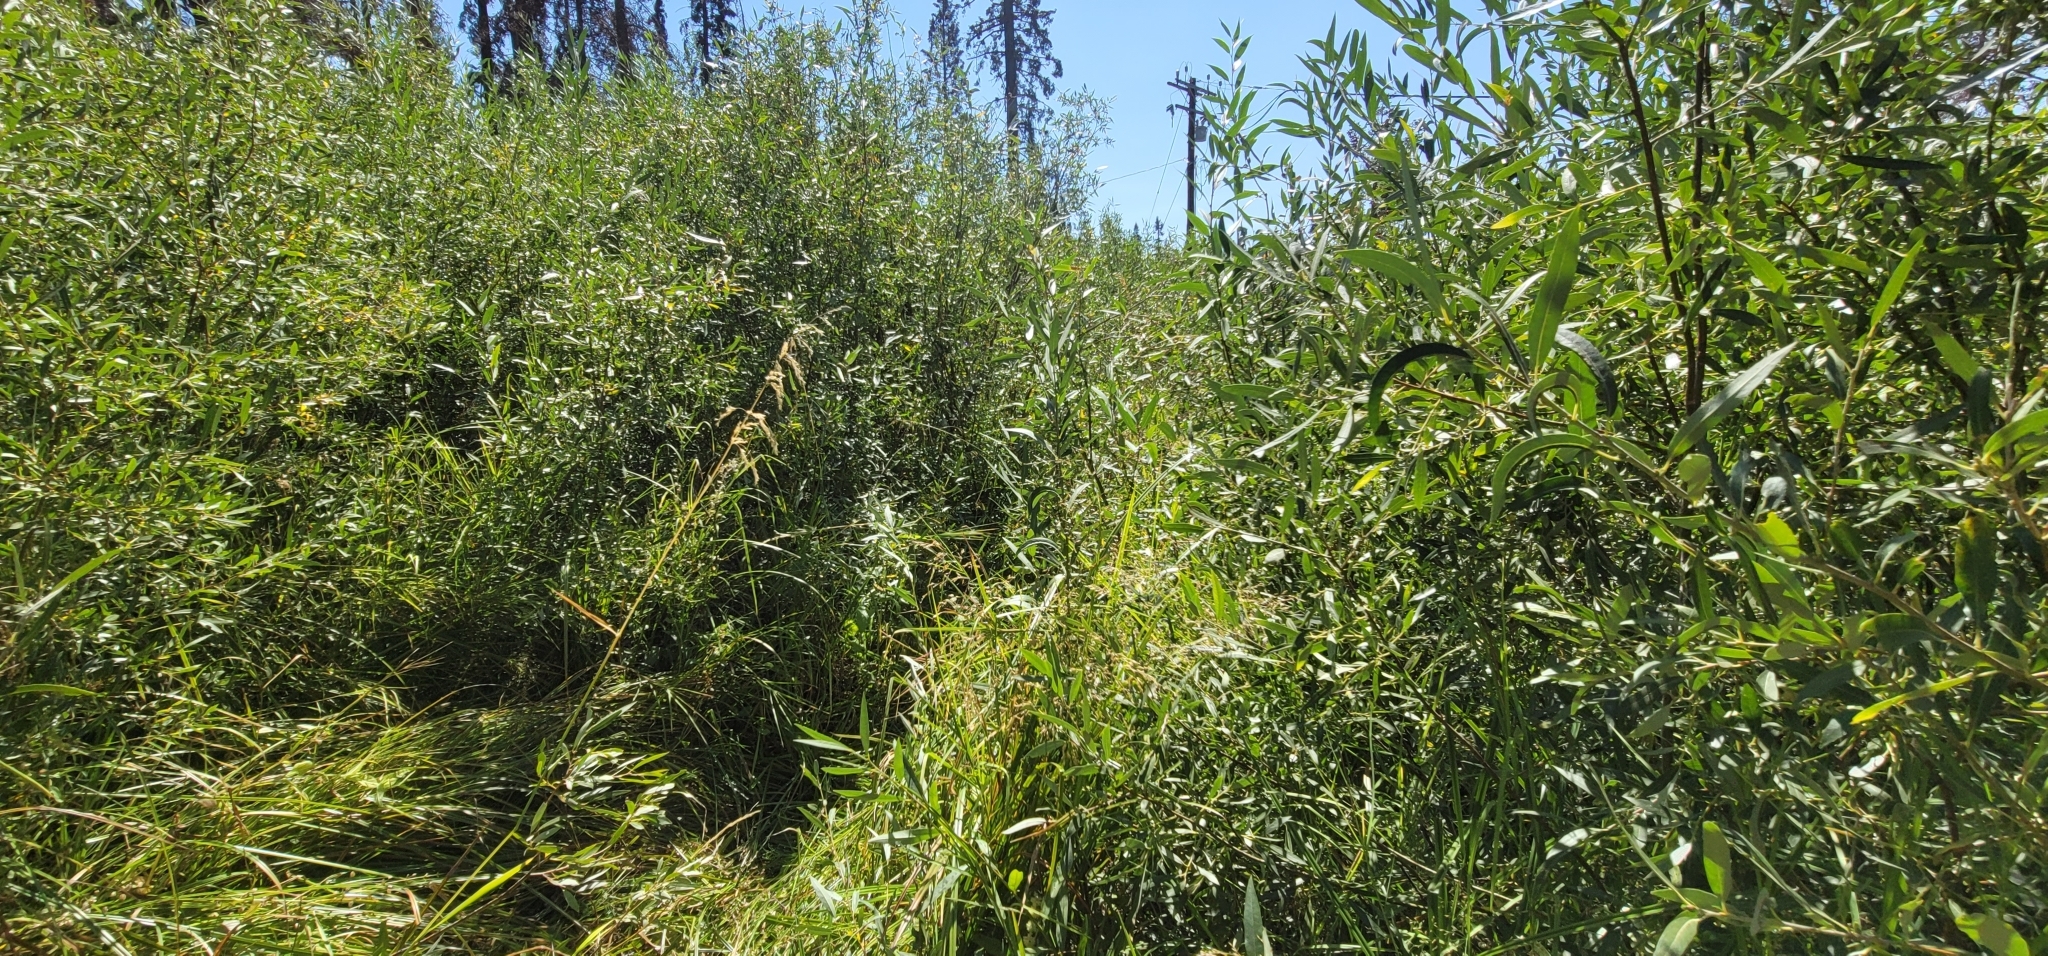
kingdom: Plantae
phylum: Tracheophyta
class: Liliopsida
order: Poales
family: Poaceae
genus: Cinna
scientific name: Cinna bolanderi
